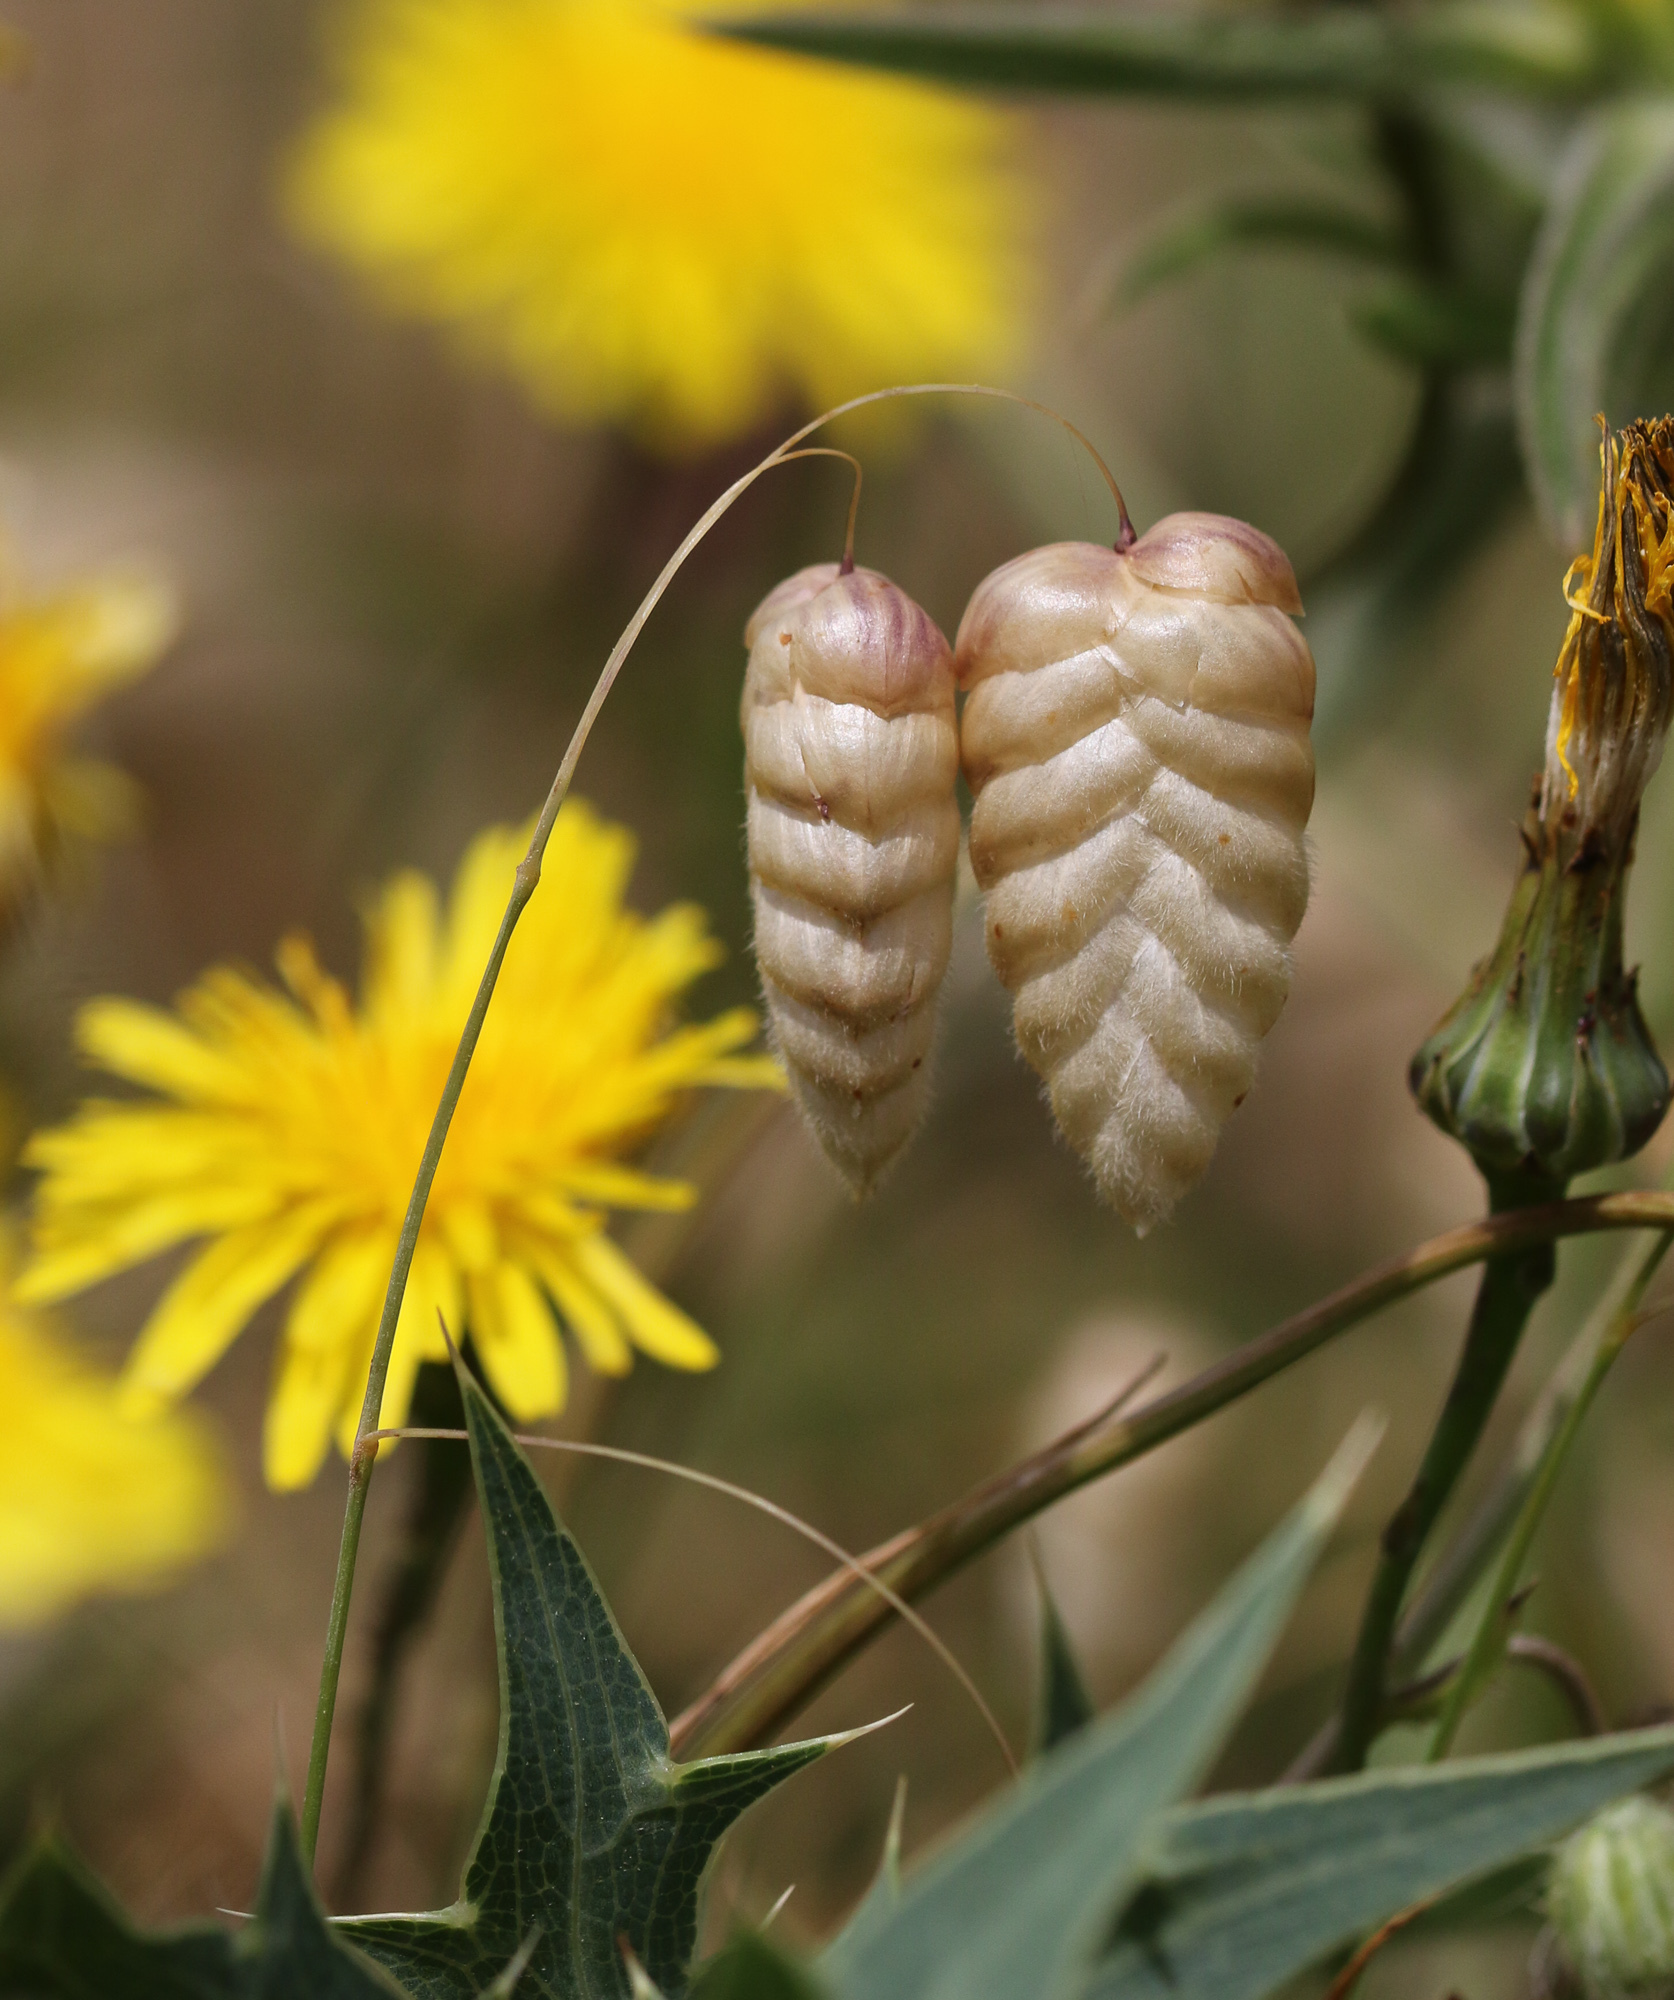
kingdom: Plantae
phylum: Tracheophyta
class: Liliopsida
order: Poales
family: Poaceae
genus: Briza
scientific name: Briza maxima
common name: Big quakinggrass
